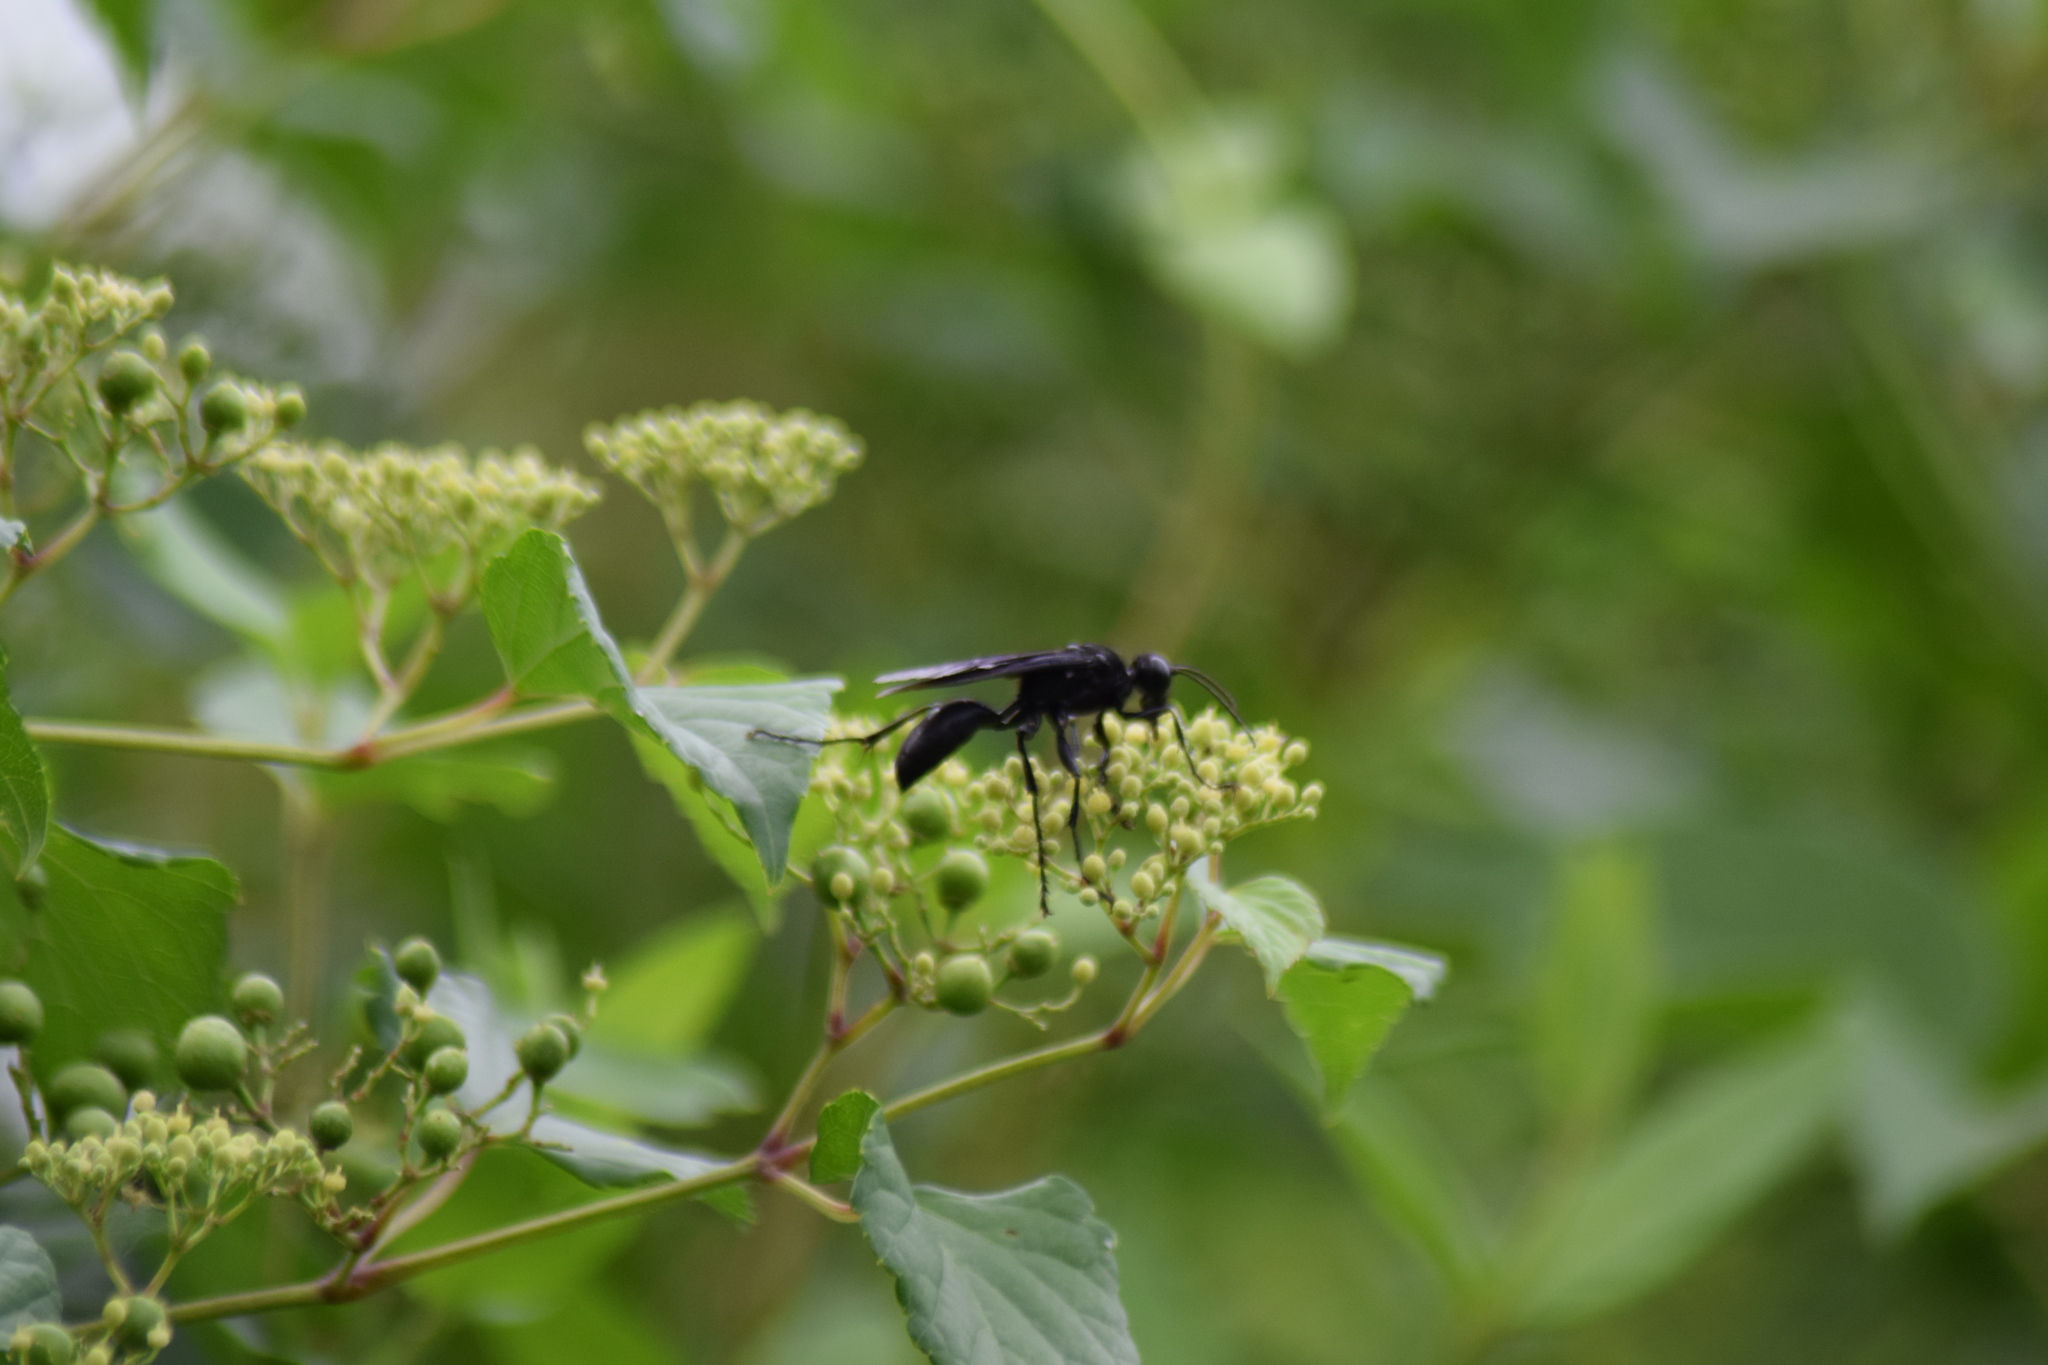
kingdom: Animalia
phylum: Arthropoda
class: Insecta
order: Hymenoptera
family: Sphecidae
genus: Sphex
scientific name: Sphex pensylvanicus
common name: Great black digger wasp
